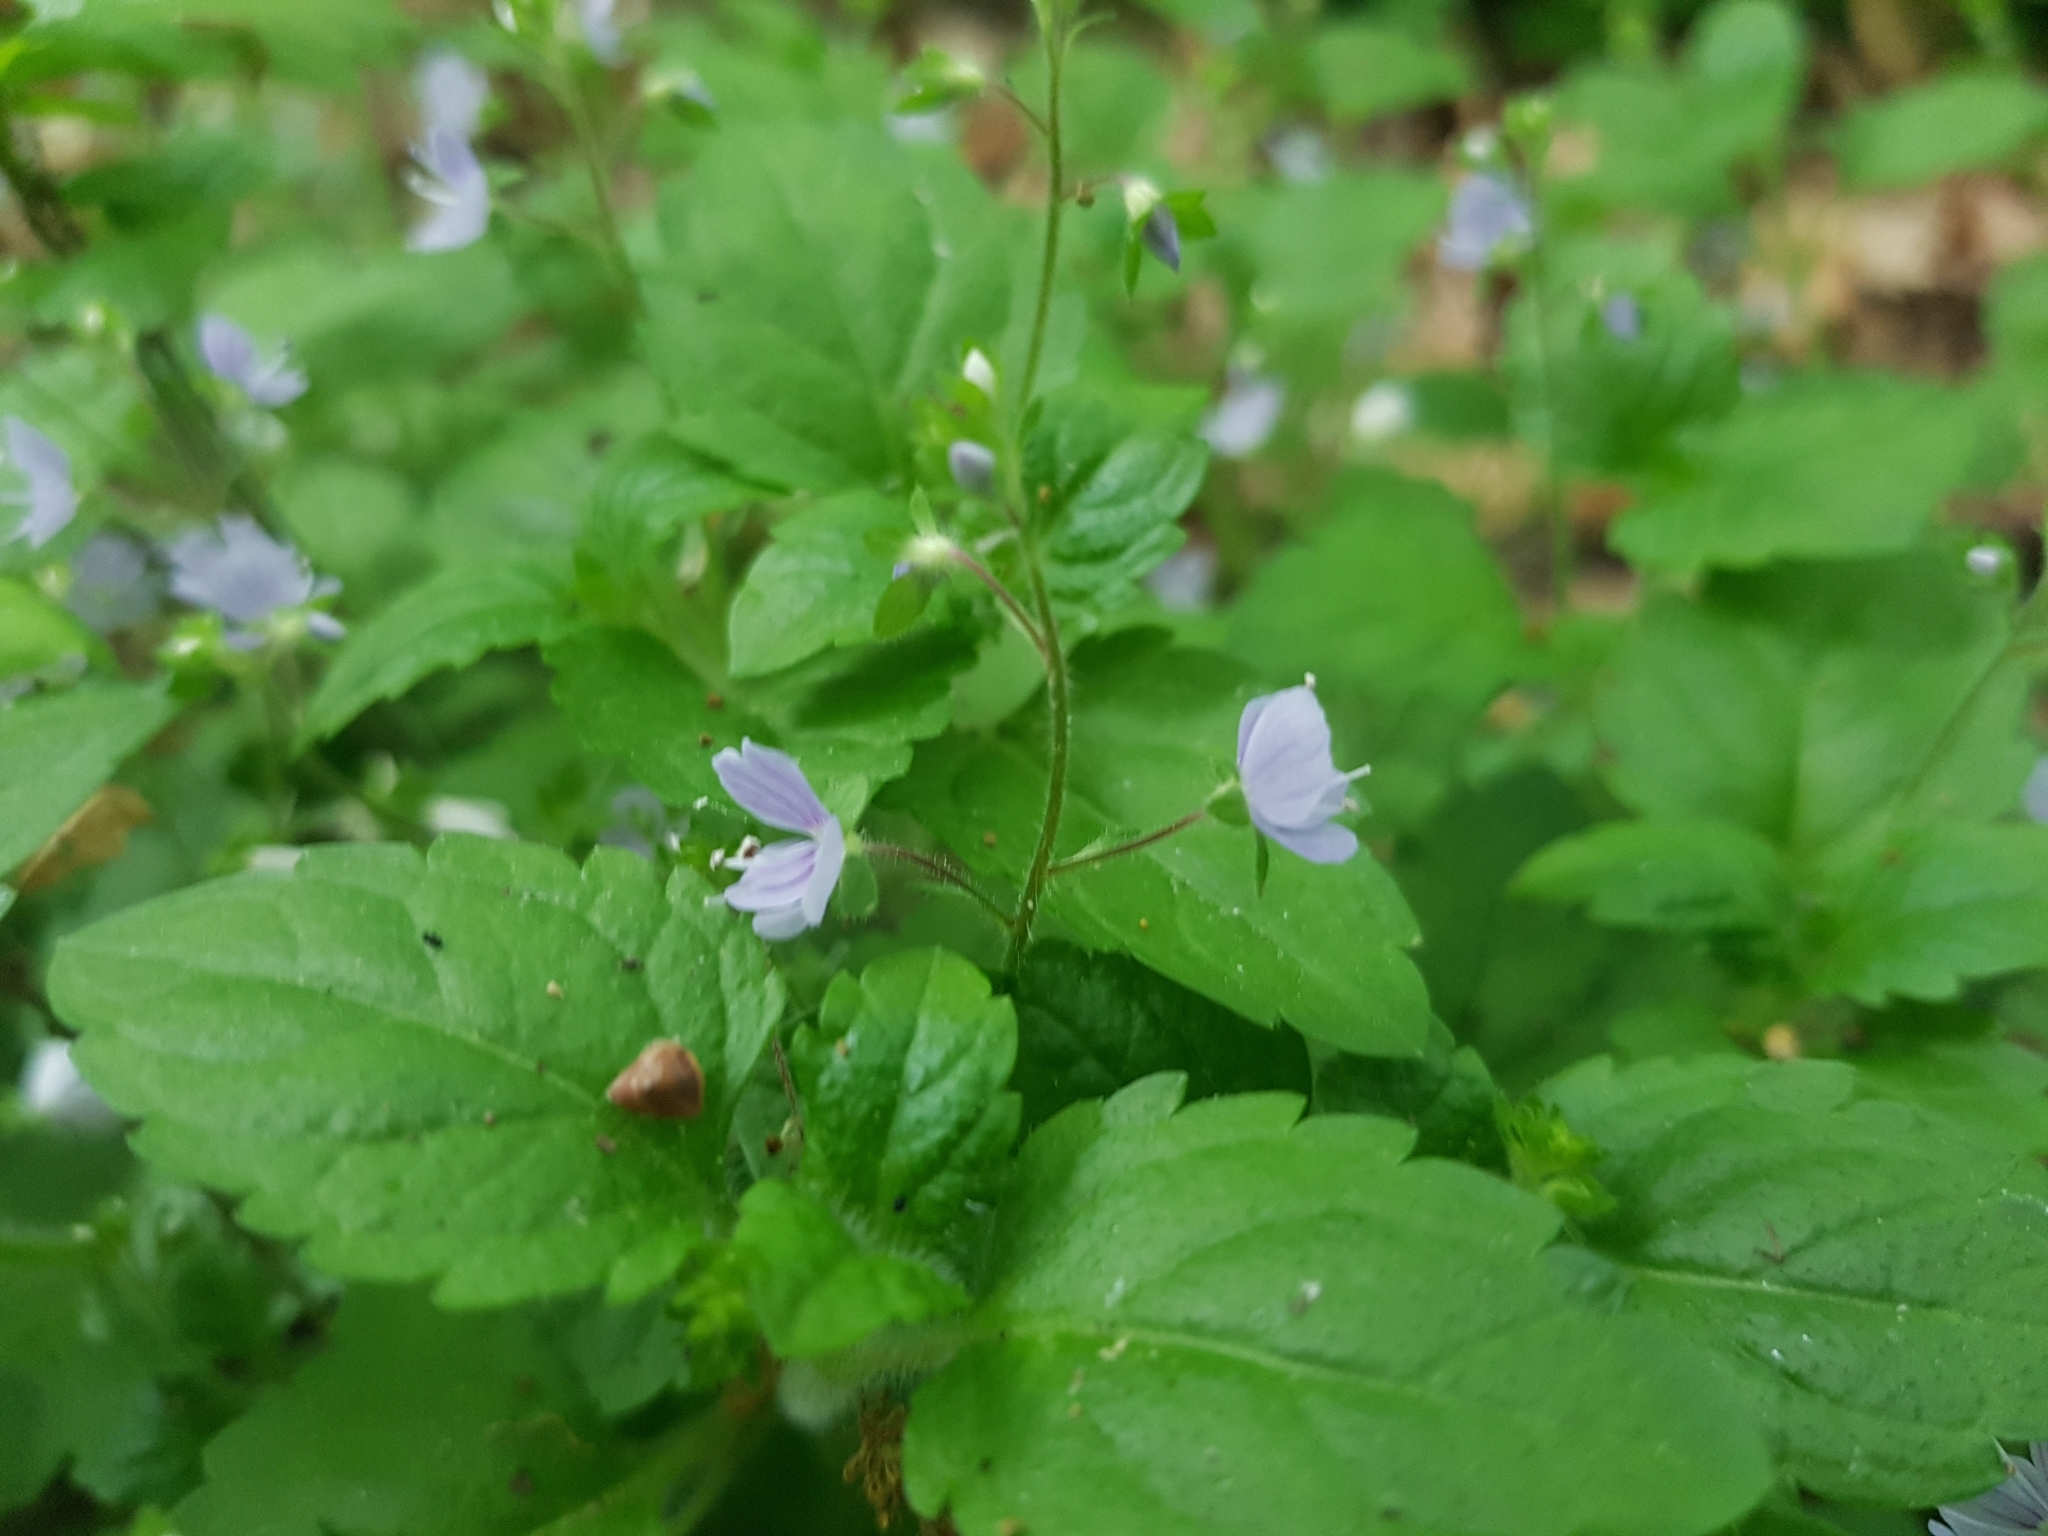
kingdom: Plantae
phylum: Tracheophyta
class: Magnoliopsida
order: Lamiales
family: Plantaginaceae
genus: Veronica
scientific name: Veronica montana
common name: Wood speedwell
